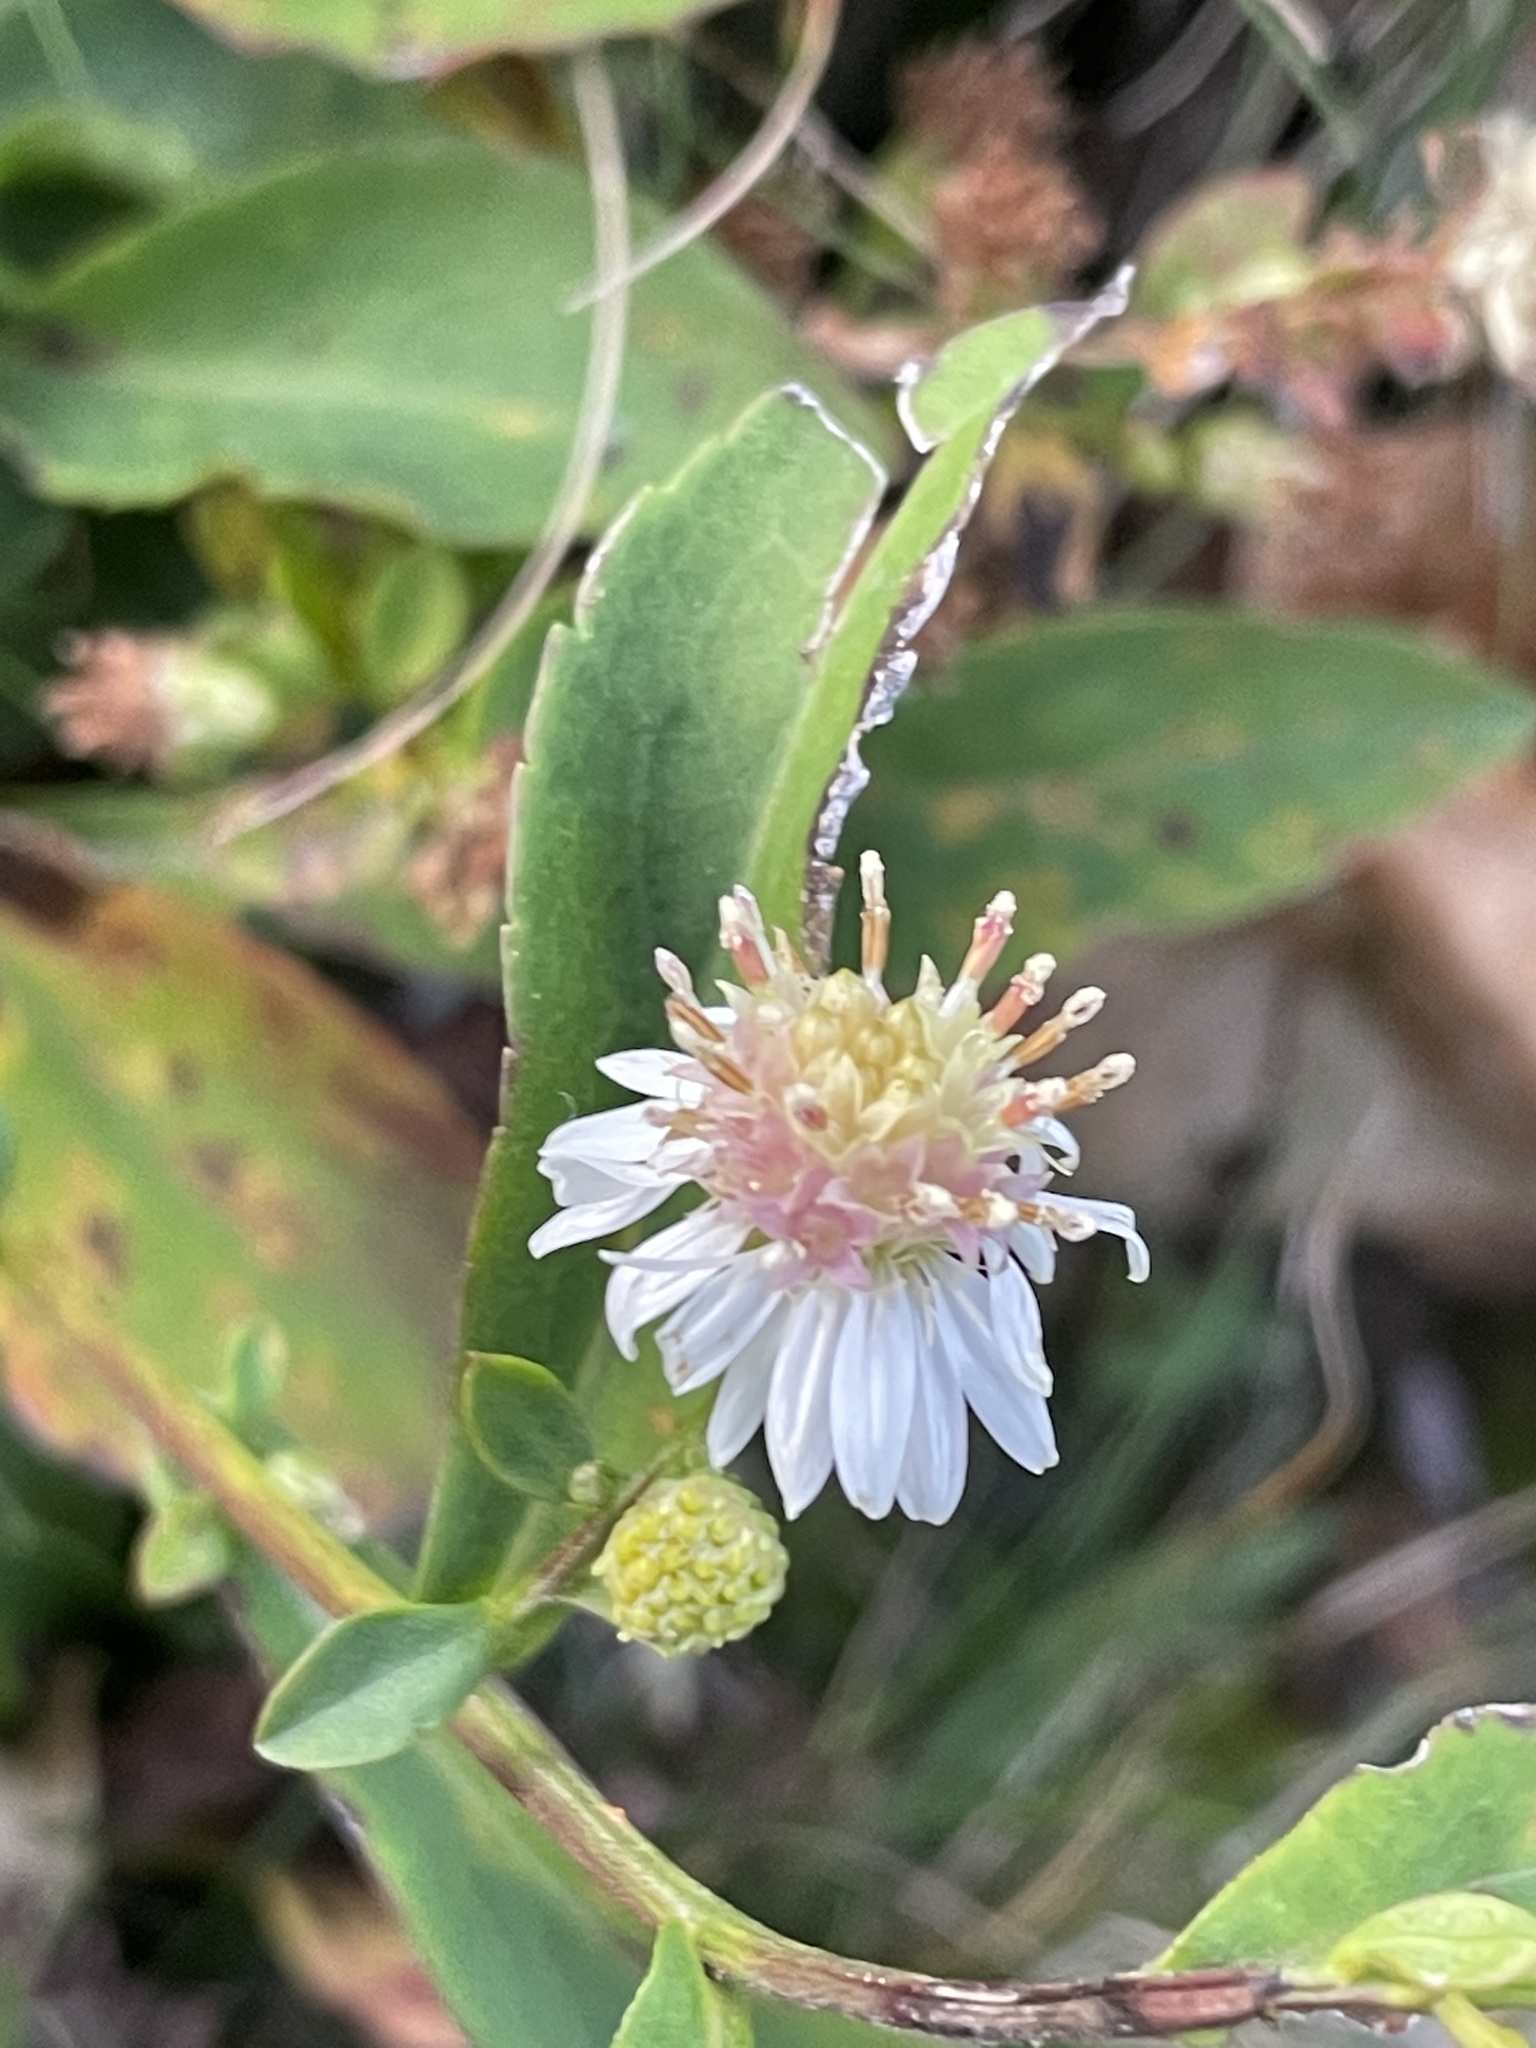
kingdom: Plantae
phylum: Tracheophyta
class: Magnoliopsida
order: Asterales
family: Asteraceae
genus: Symphyotrichum
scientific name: Symphyotrichum lateriflorum
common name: Calico aster
